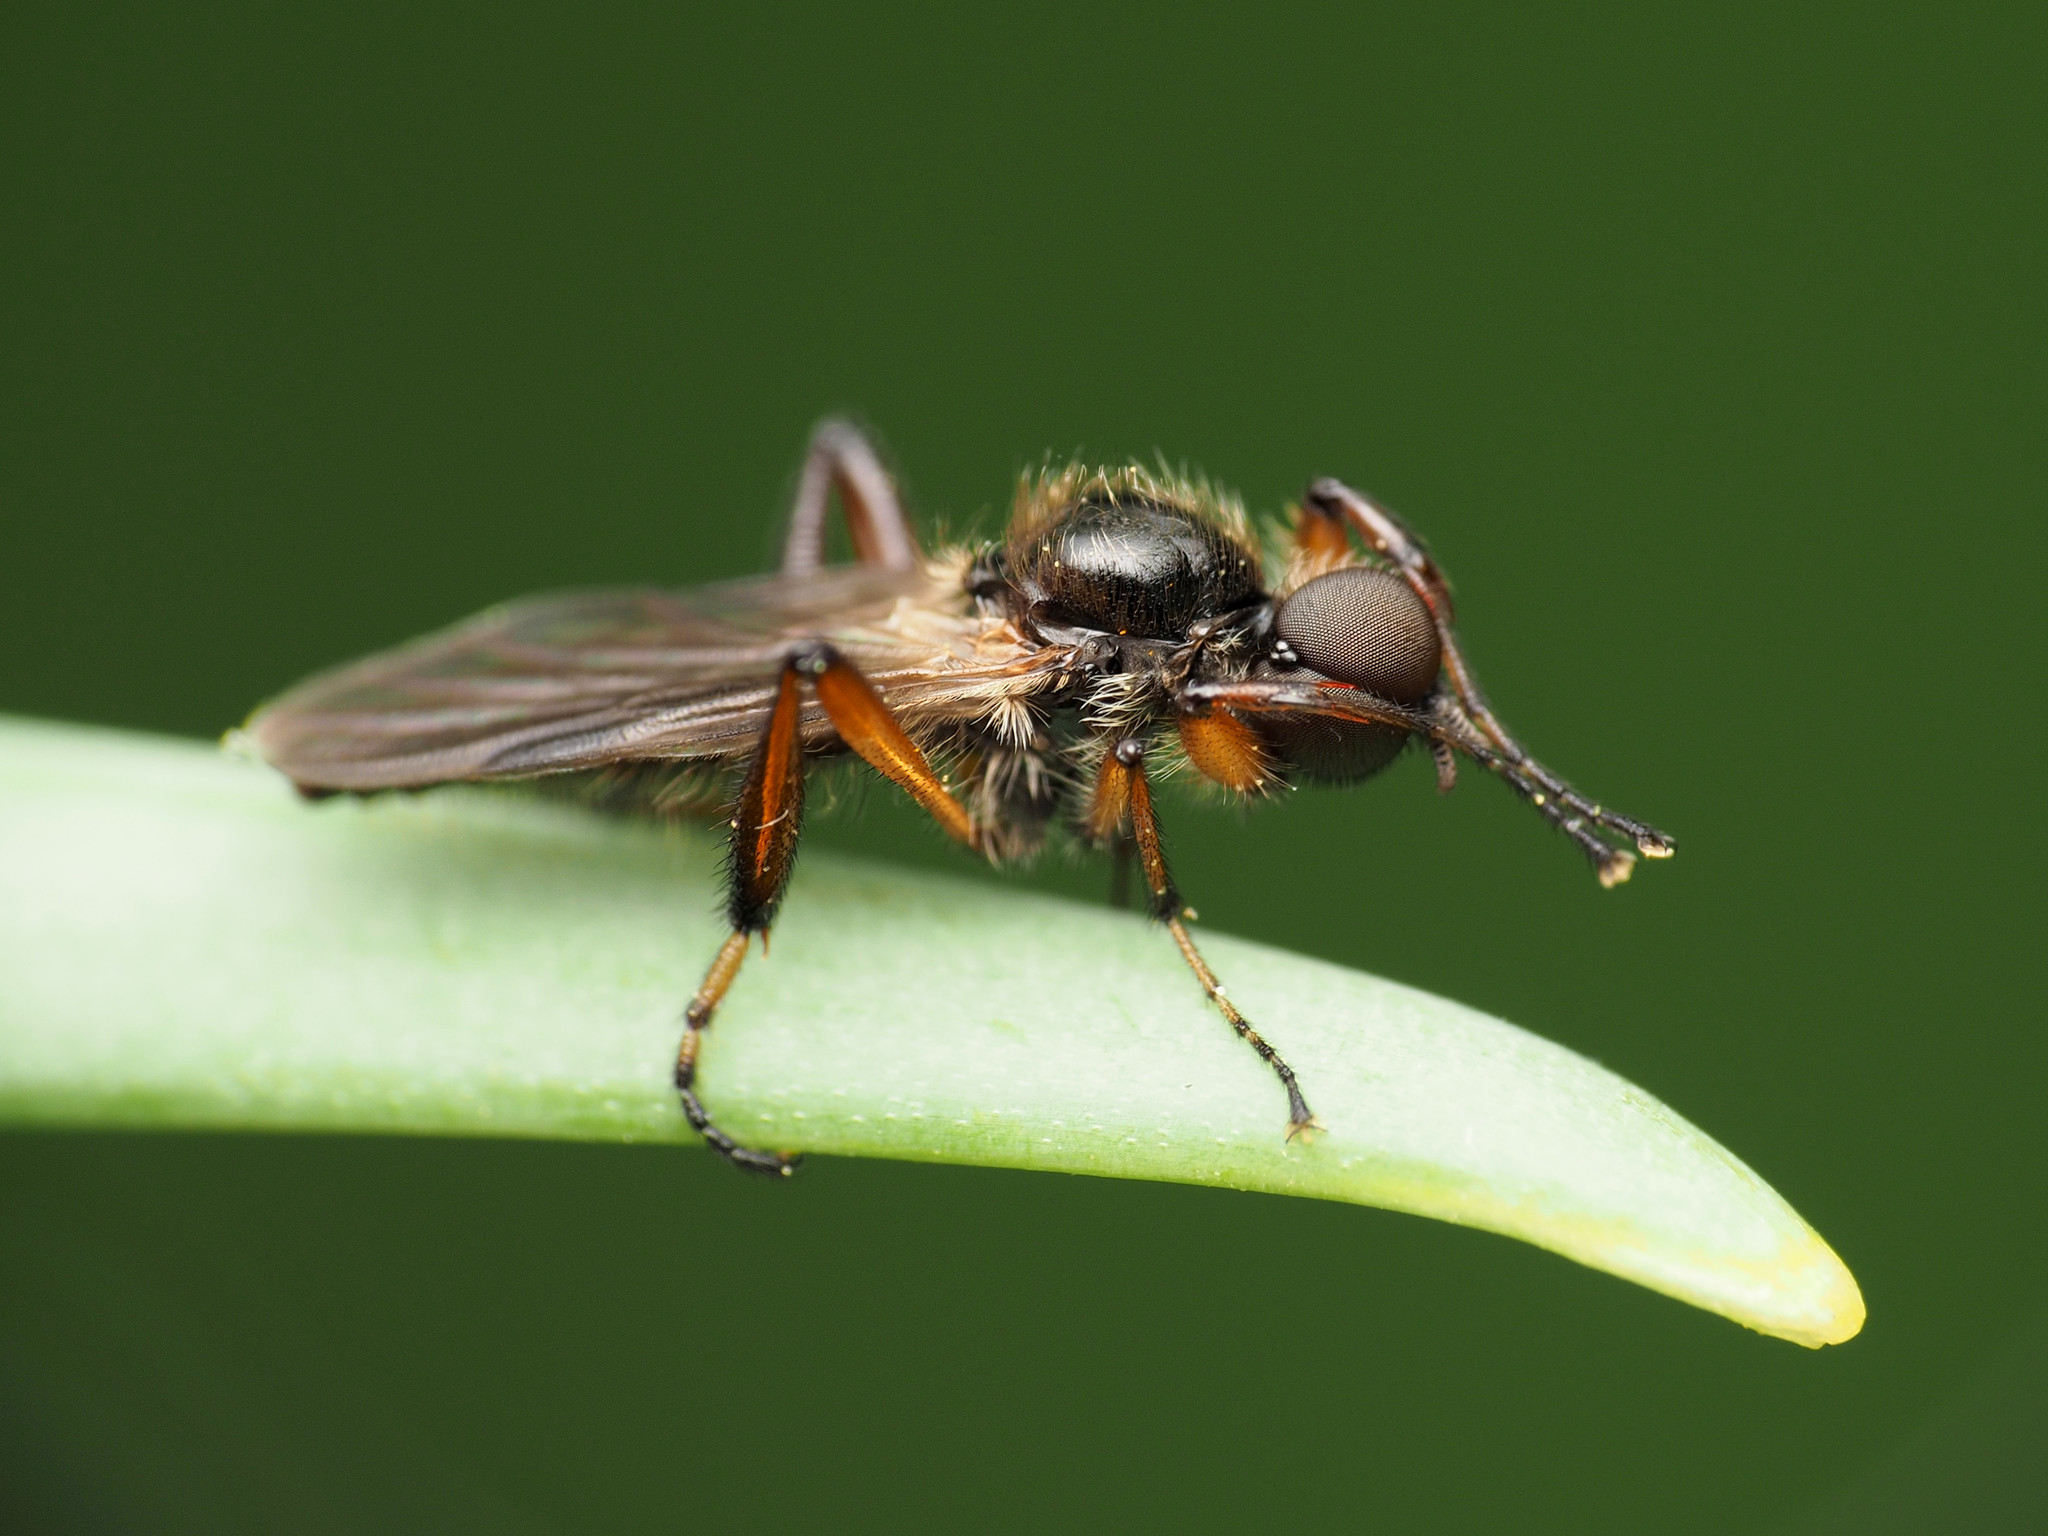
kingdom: Animalia
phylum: Arthropoda
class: Insecta
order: Diptera
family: Bibionidae
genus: Bibio
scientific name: Bibio articulatus
